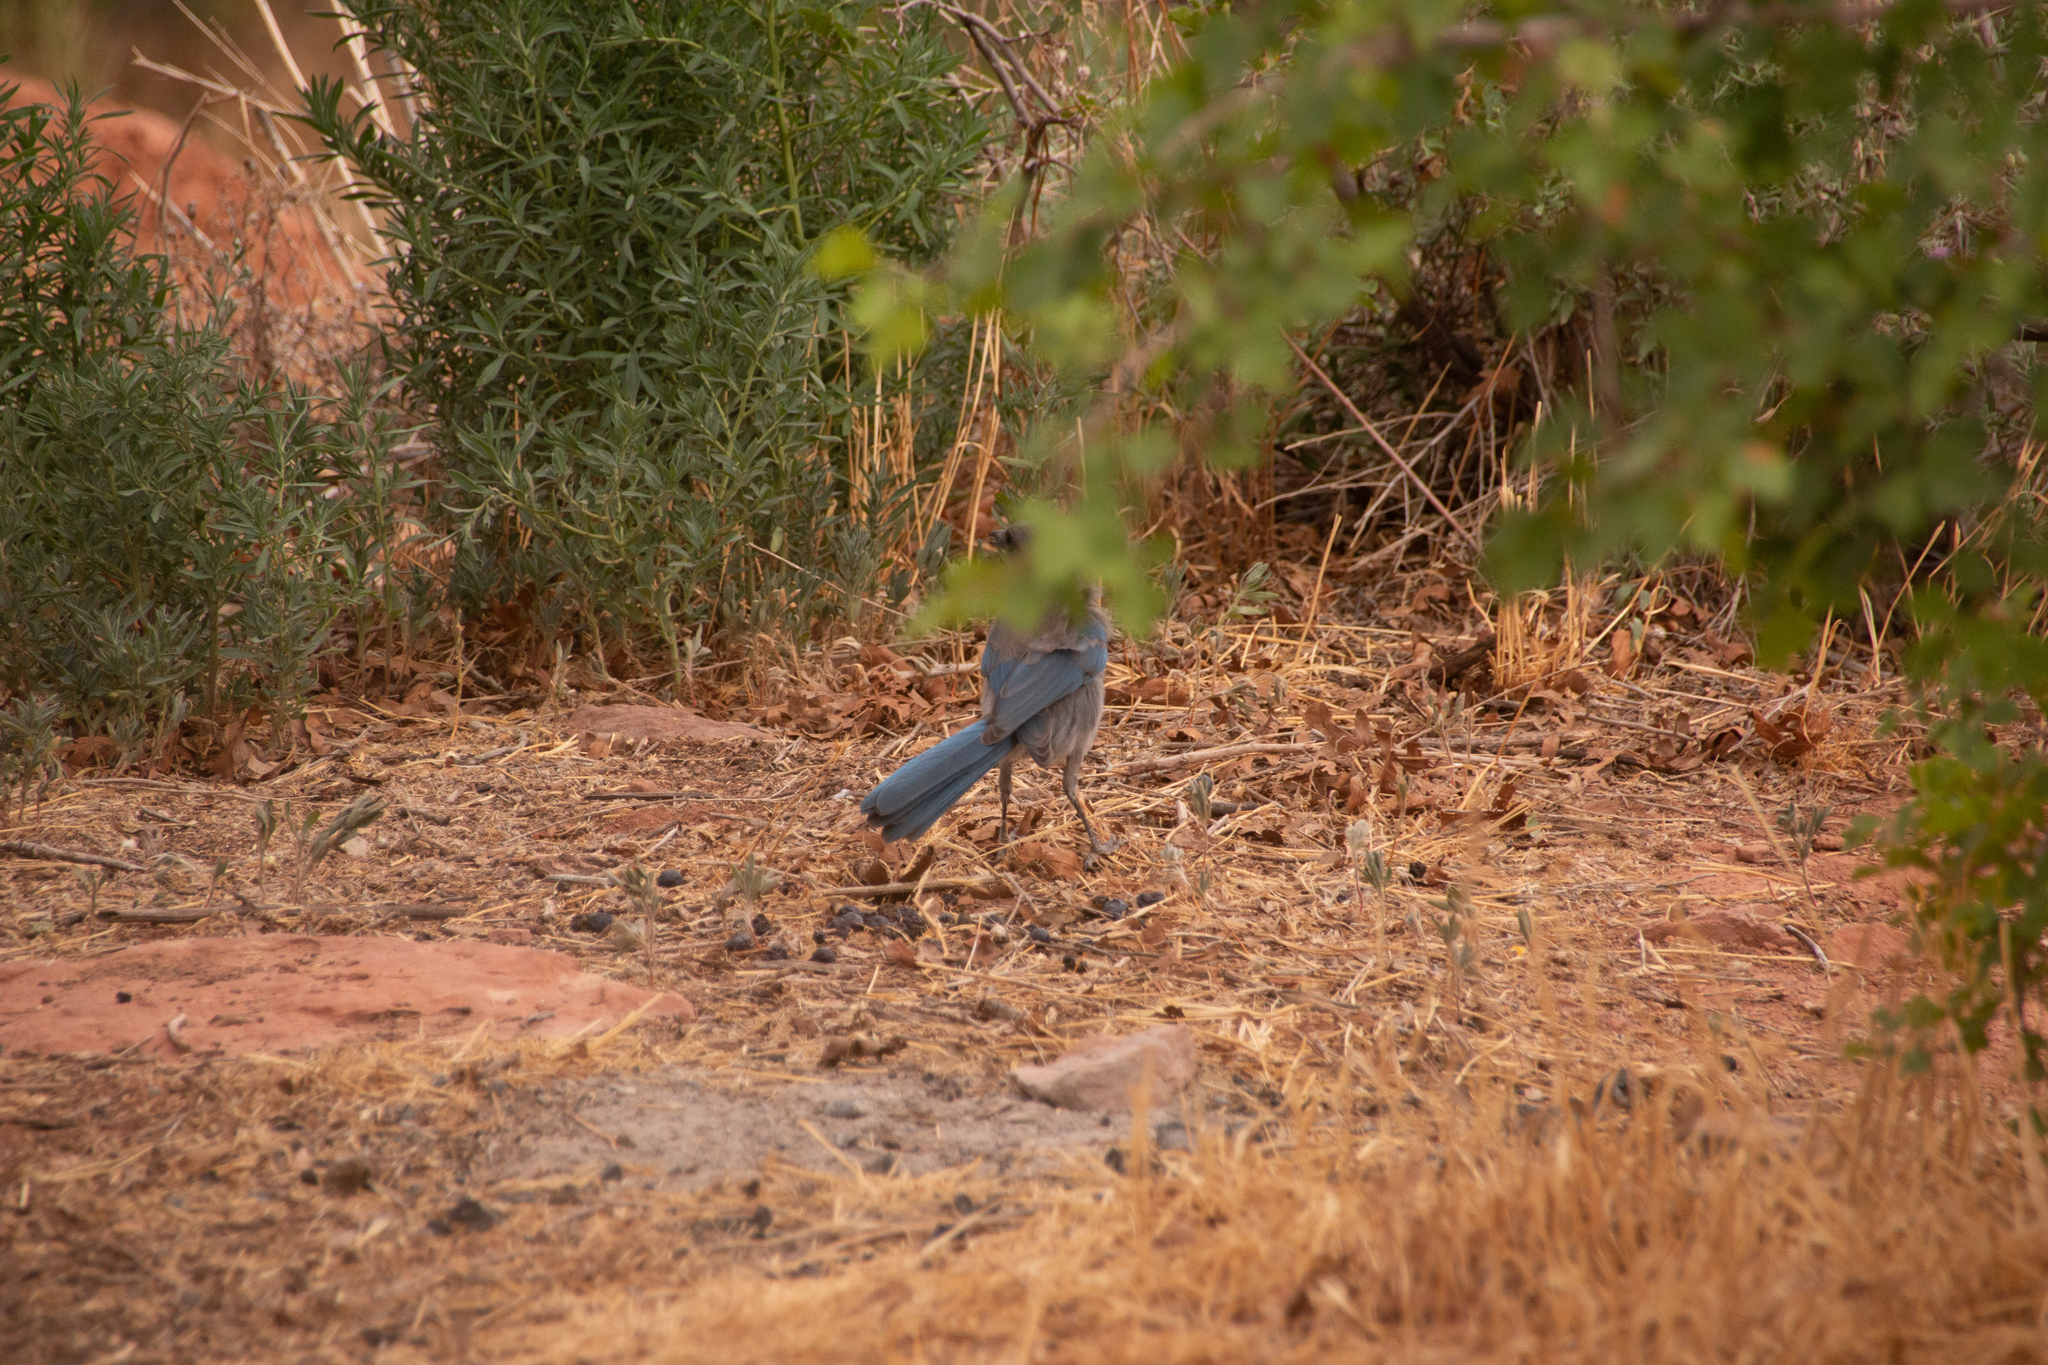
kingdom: Animalia
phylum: Chordata
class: Aves
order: Passeriformes
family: Corvidae
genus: Aphelocoma
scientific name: Aphelocoma woodhouseii
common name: Woodhouse's scrub-jay
